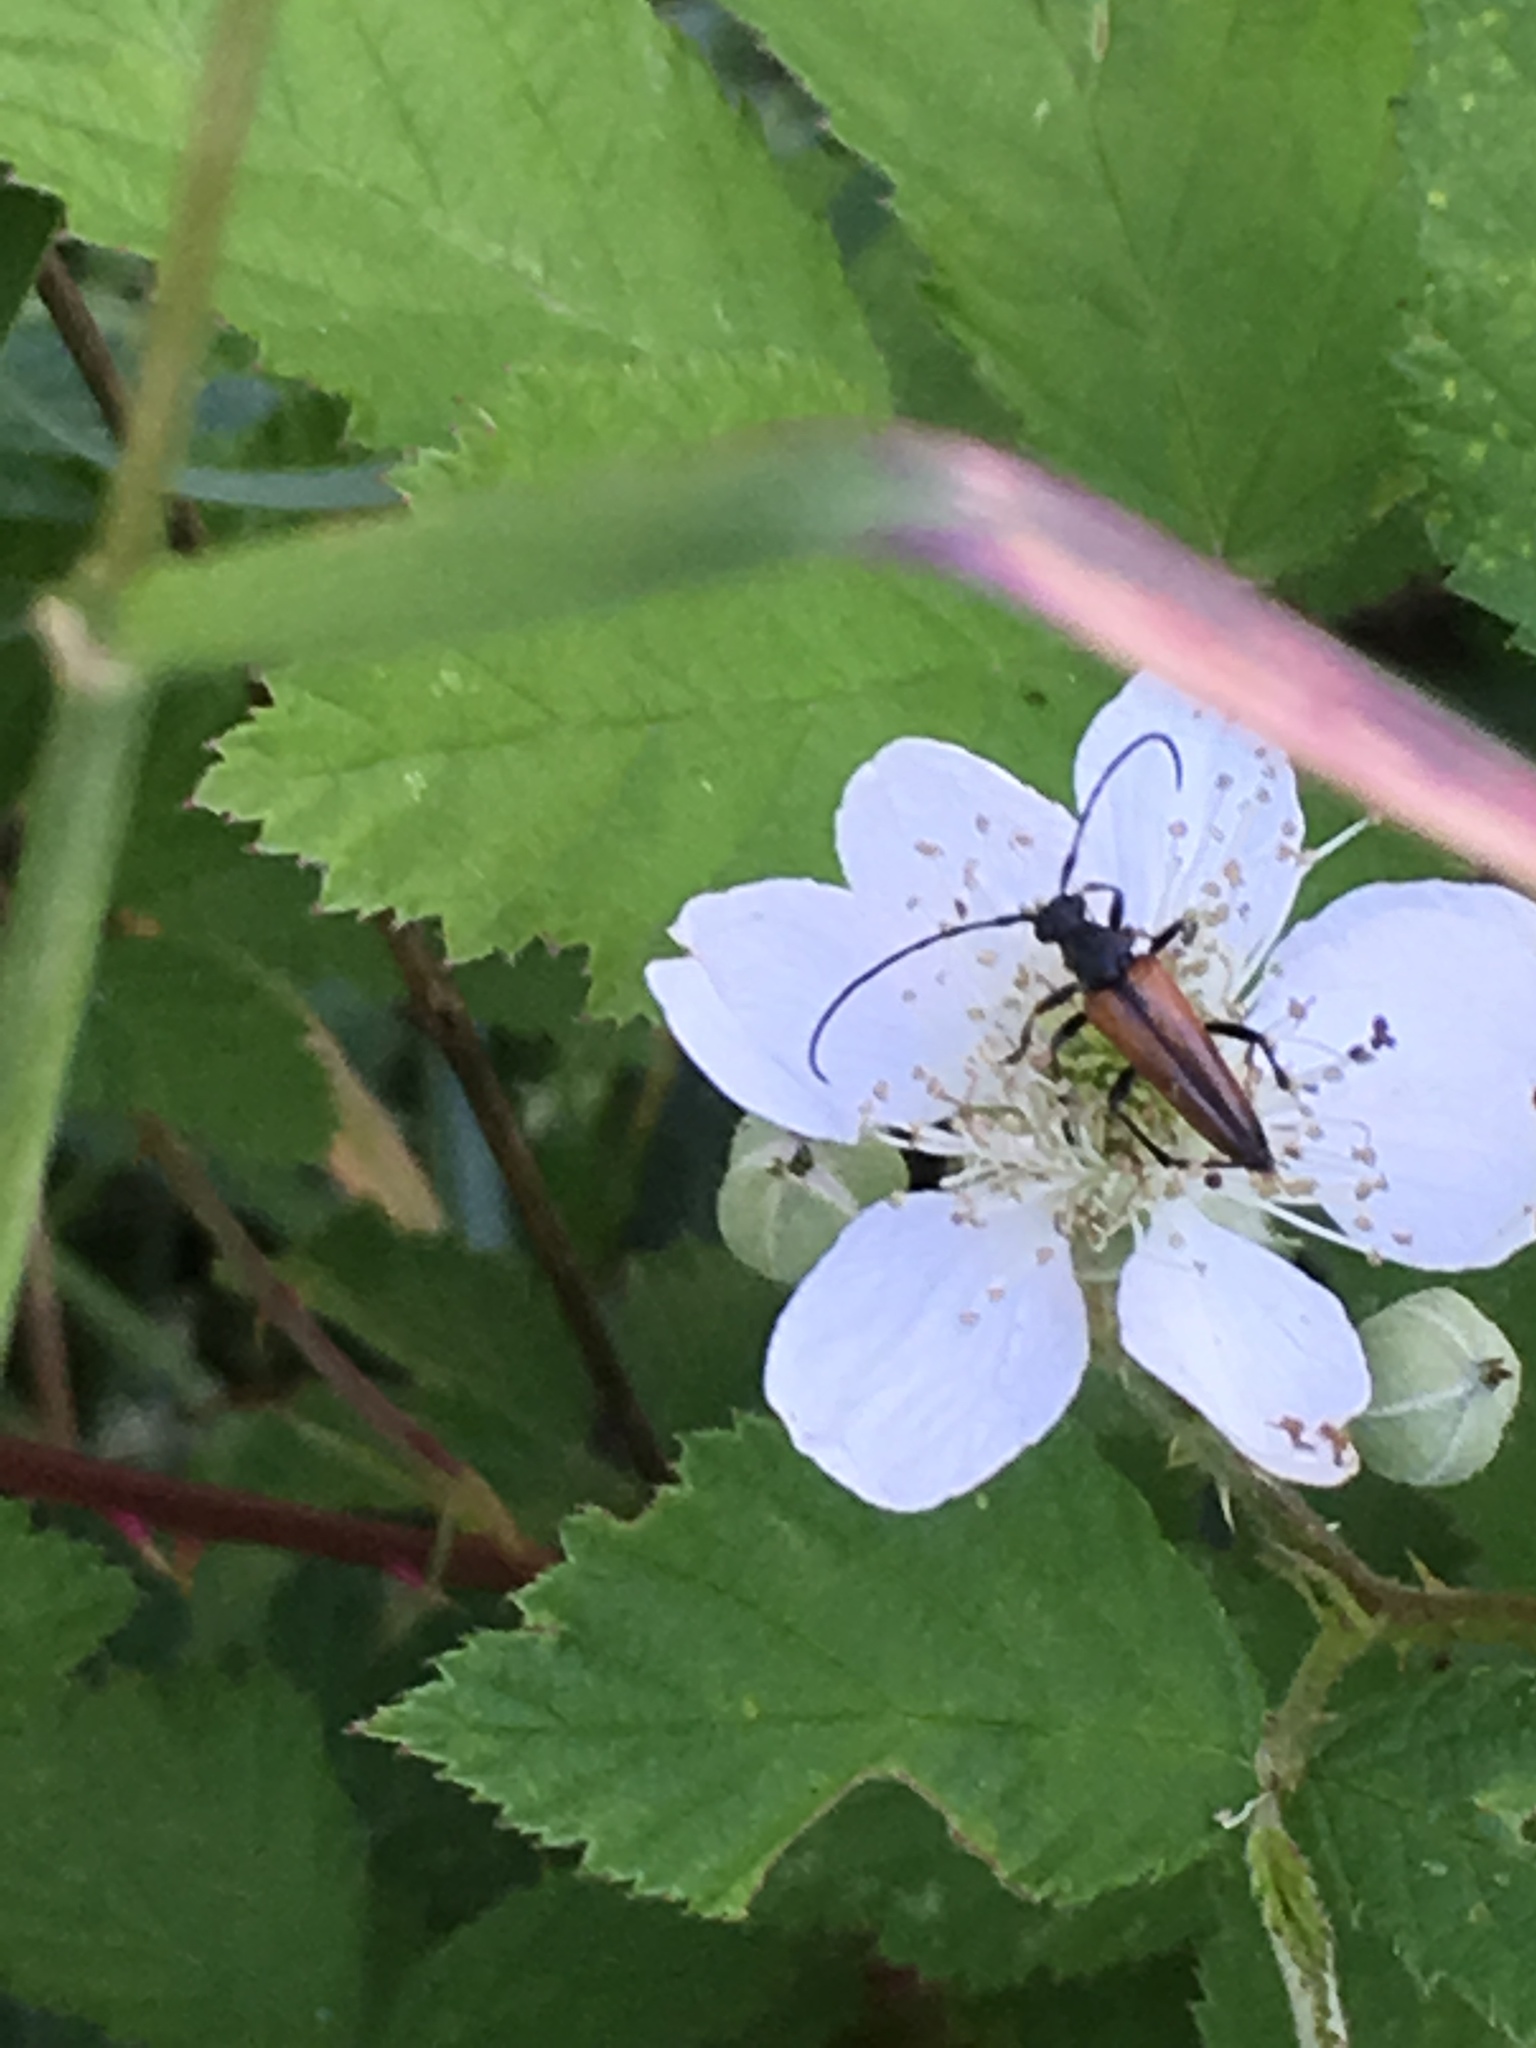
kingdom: Animalia
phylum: Arthropoda
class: Insecta
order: Coleoptera
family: Cerambycidae
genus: Stenurella
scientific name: Stenurella melanura
